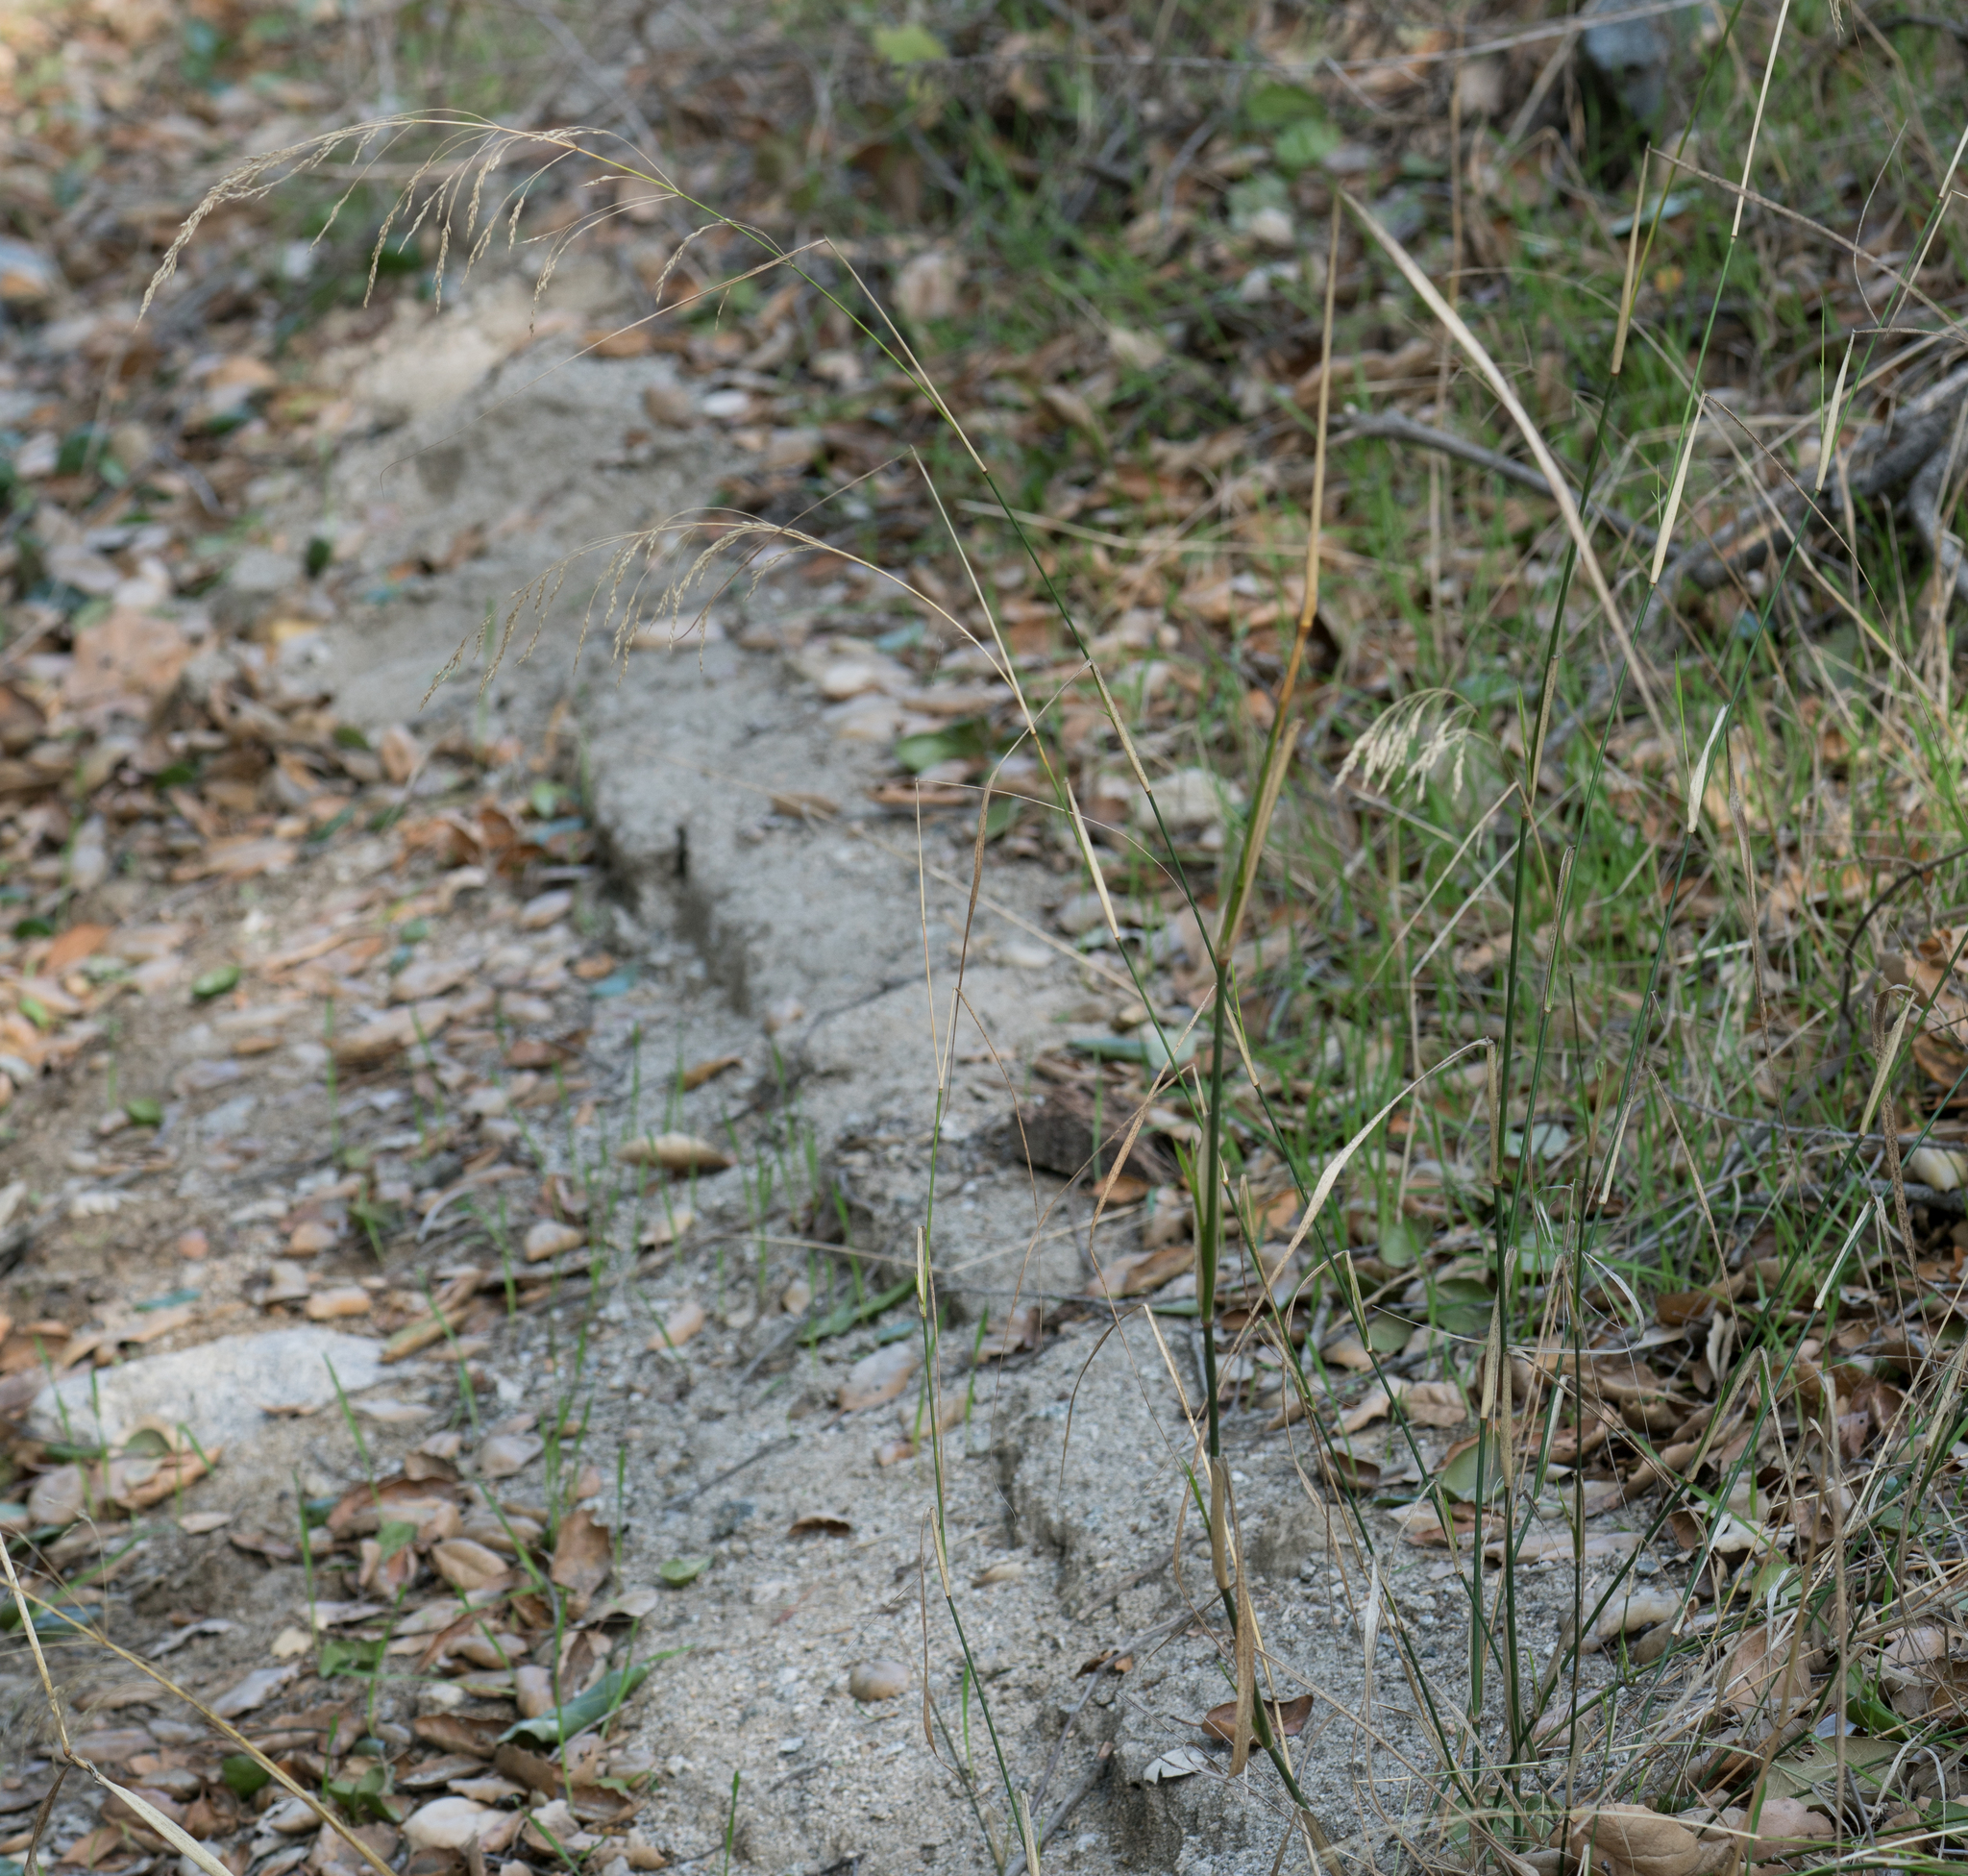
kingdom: Plantae
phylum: Tracheophyta
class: Liliopsida
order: Poales
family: Poaceae
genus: Oloptum
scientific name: Oloptum miliaceum
